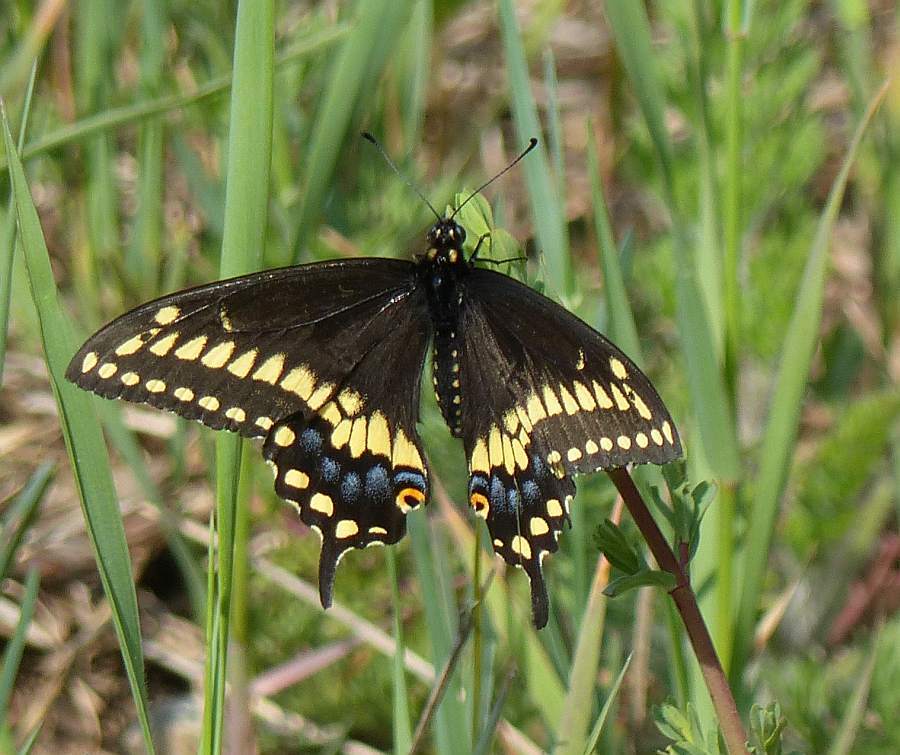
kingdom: Animalia
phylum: Arthropoda
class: Insecta
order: Lepidoptera
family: Papilionidae
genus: Papilio
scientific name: Papilio polyxenes
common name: Black swallowtail
